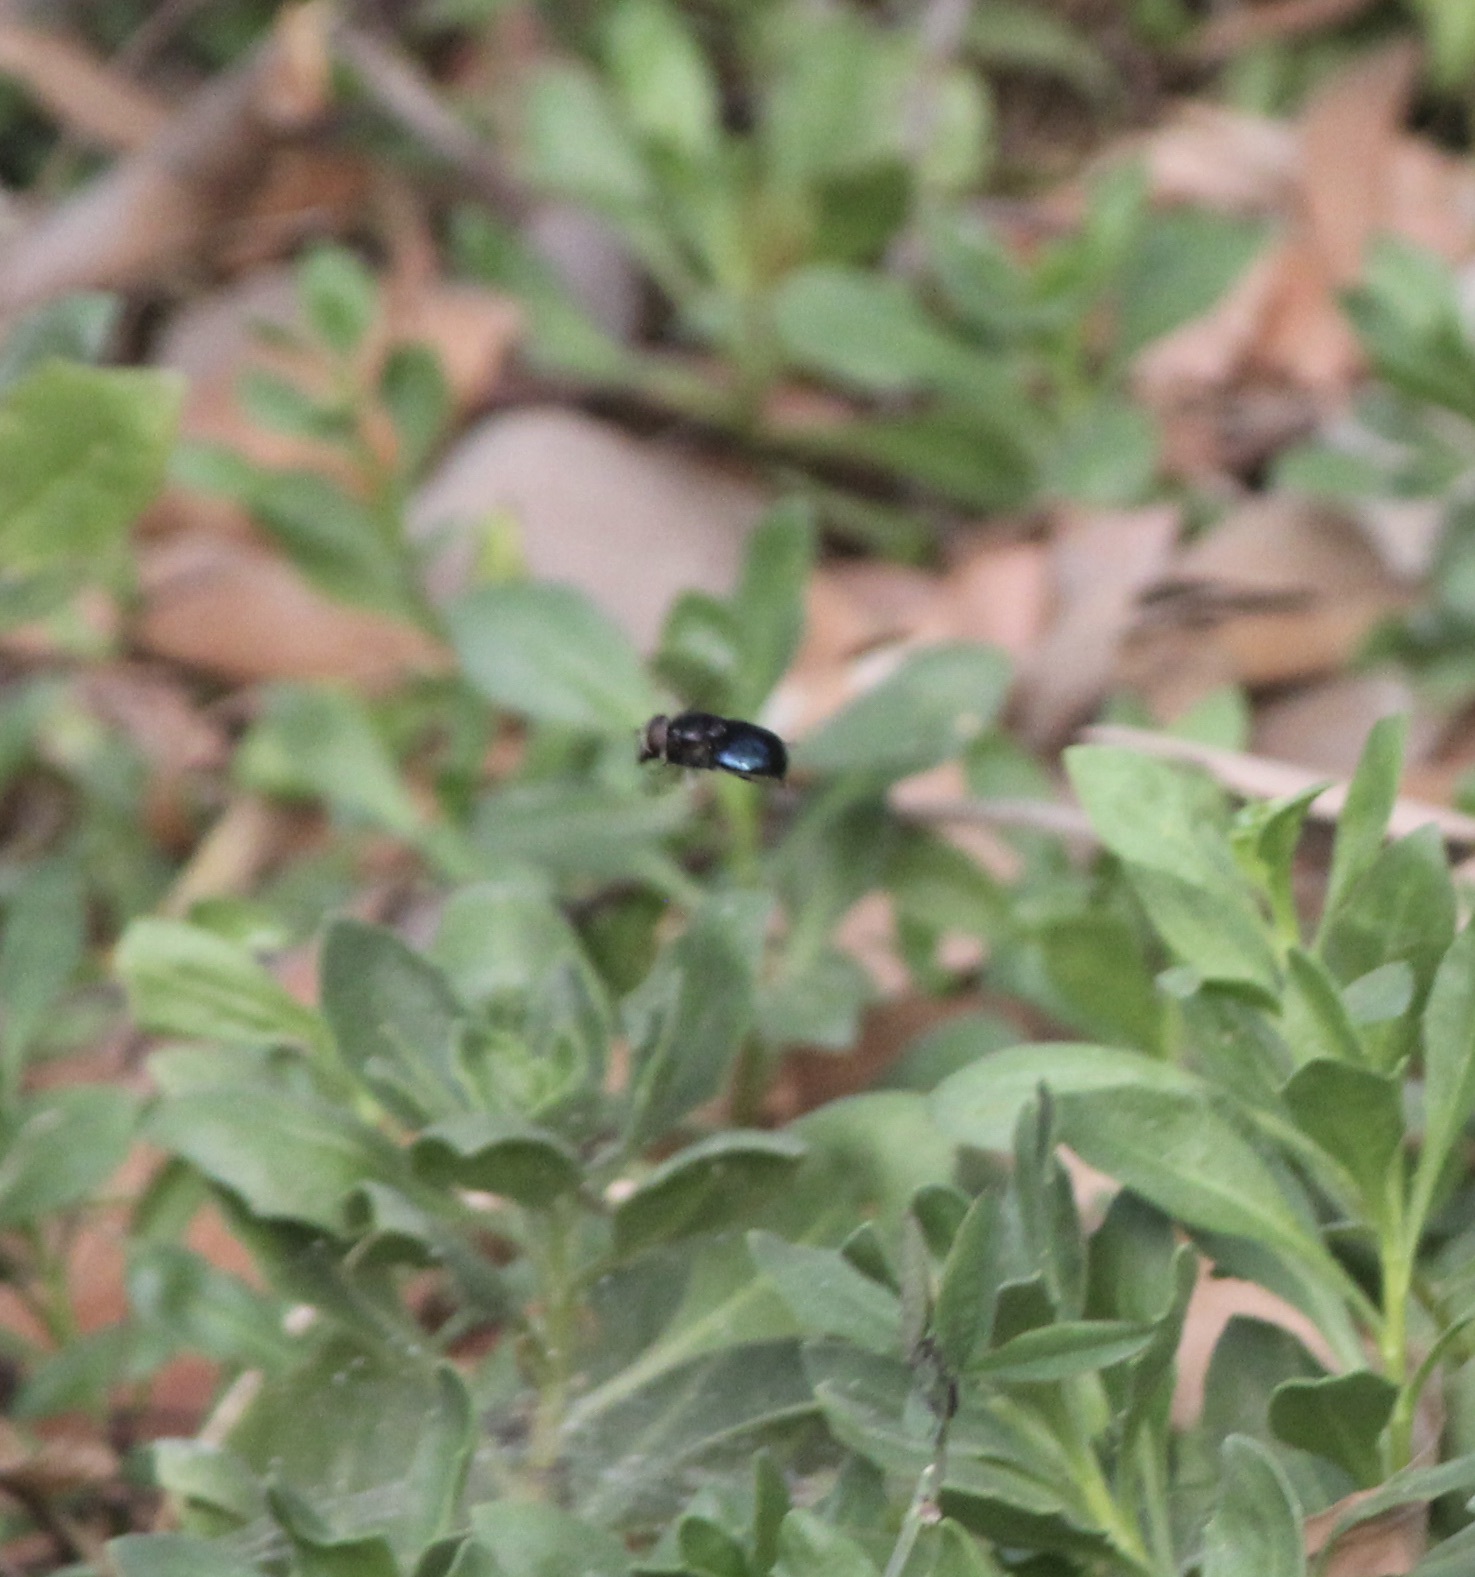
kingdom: Animalia
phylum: Arthropoda
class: Insecta
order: Diptera
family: Syrphidae
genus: Copestylum
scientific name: Copestylum
